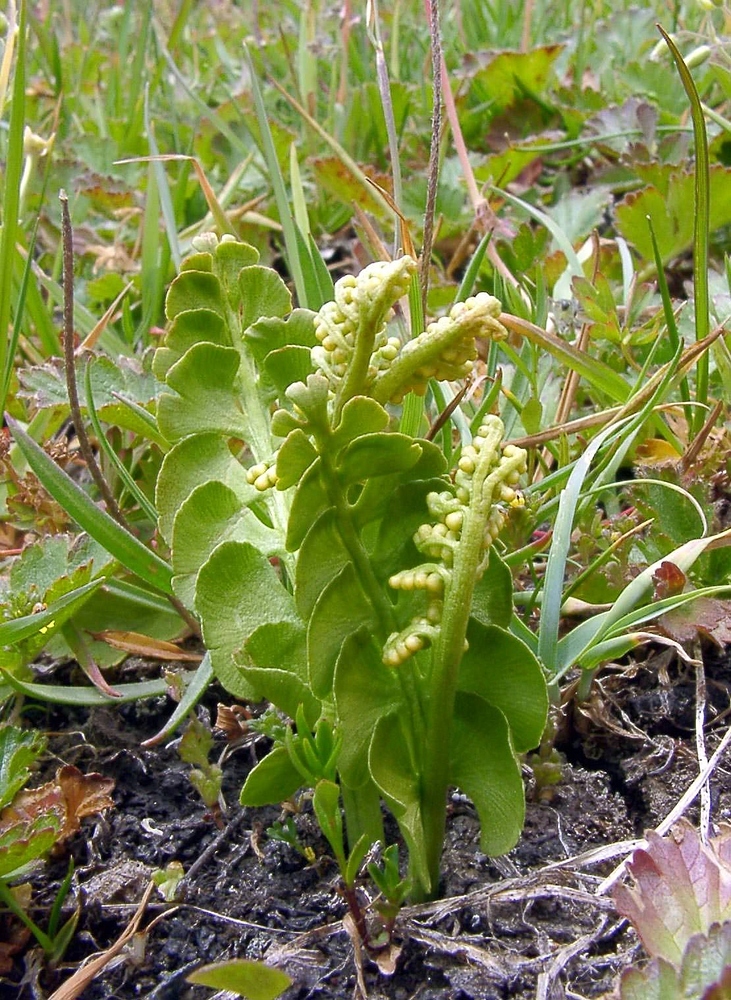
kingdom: Plantae
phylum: Tracheophyta
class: Polypodiopsida
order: Ophioglossales
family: Ophioglossaceae
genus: Botrychium
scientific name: Botrychium lunaria
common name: Moonwort
